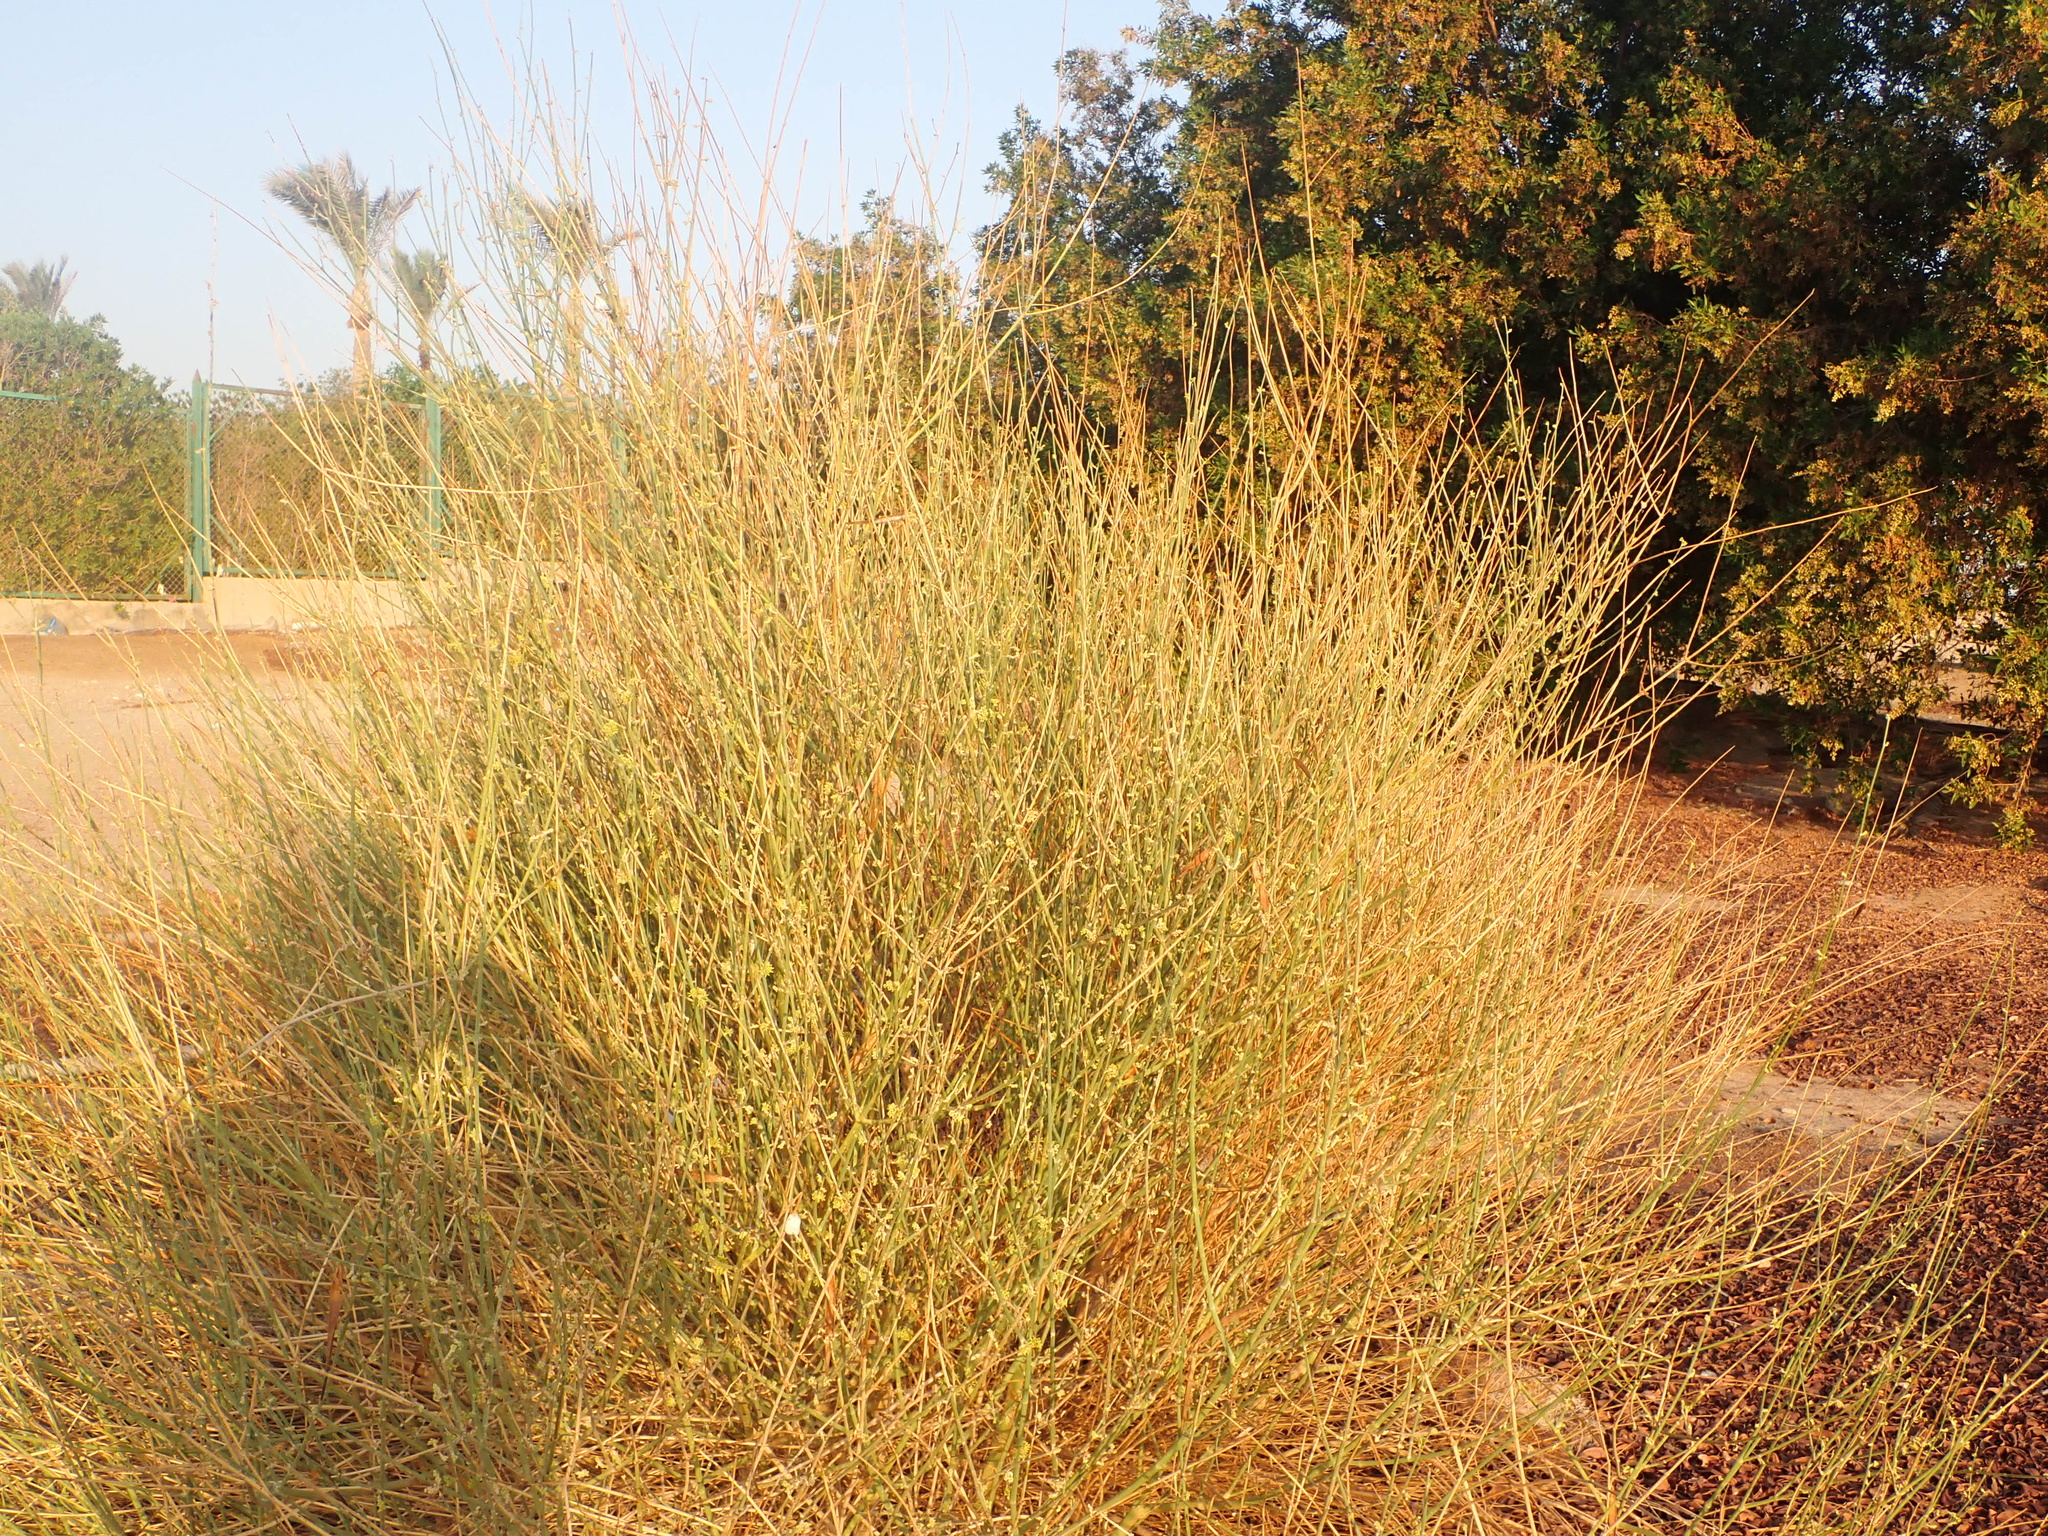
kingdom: Plantae
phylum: Tracheophyta
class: Magnoliopsida
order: Gentianales
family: Apocynaceae
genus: Leptadenia
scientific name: Leptadenia pyrotechnica
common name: Broom brush
